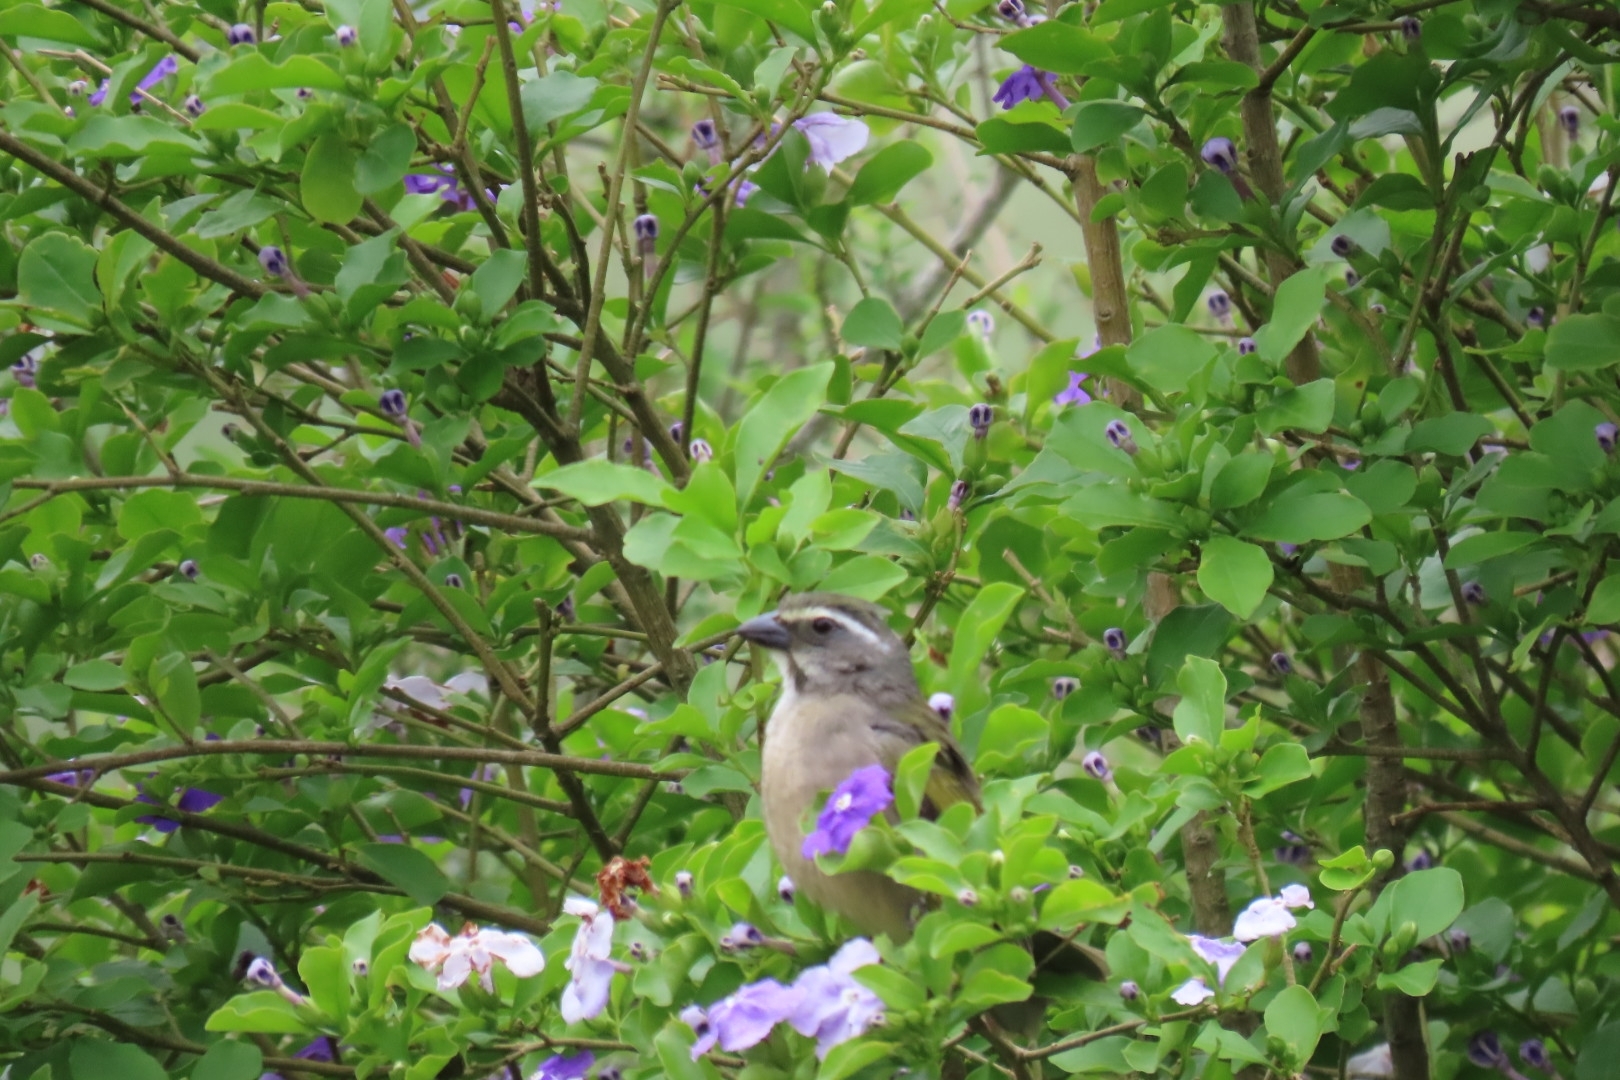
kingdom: Animalia
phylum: Chordata
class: Aves
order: Passeriformes
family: Thraupidae
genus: Saltator
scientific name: Saltator similis
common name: Green-winged saltator
